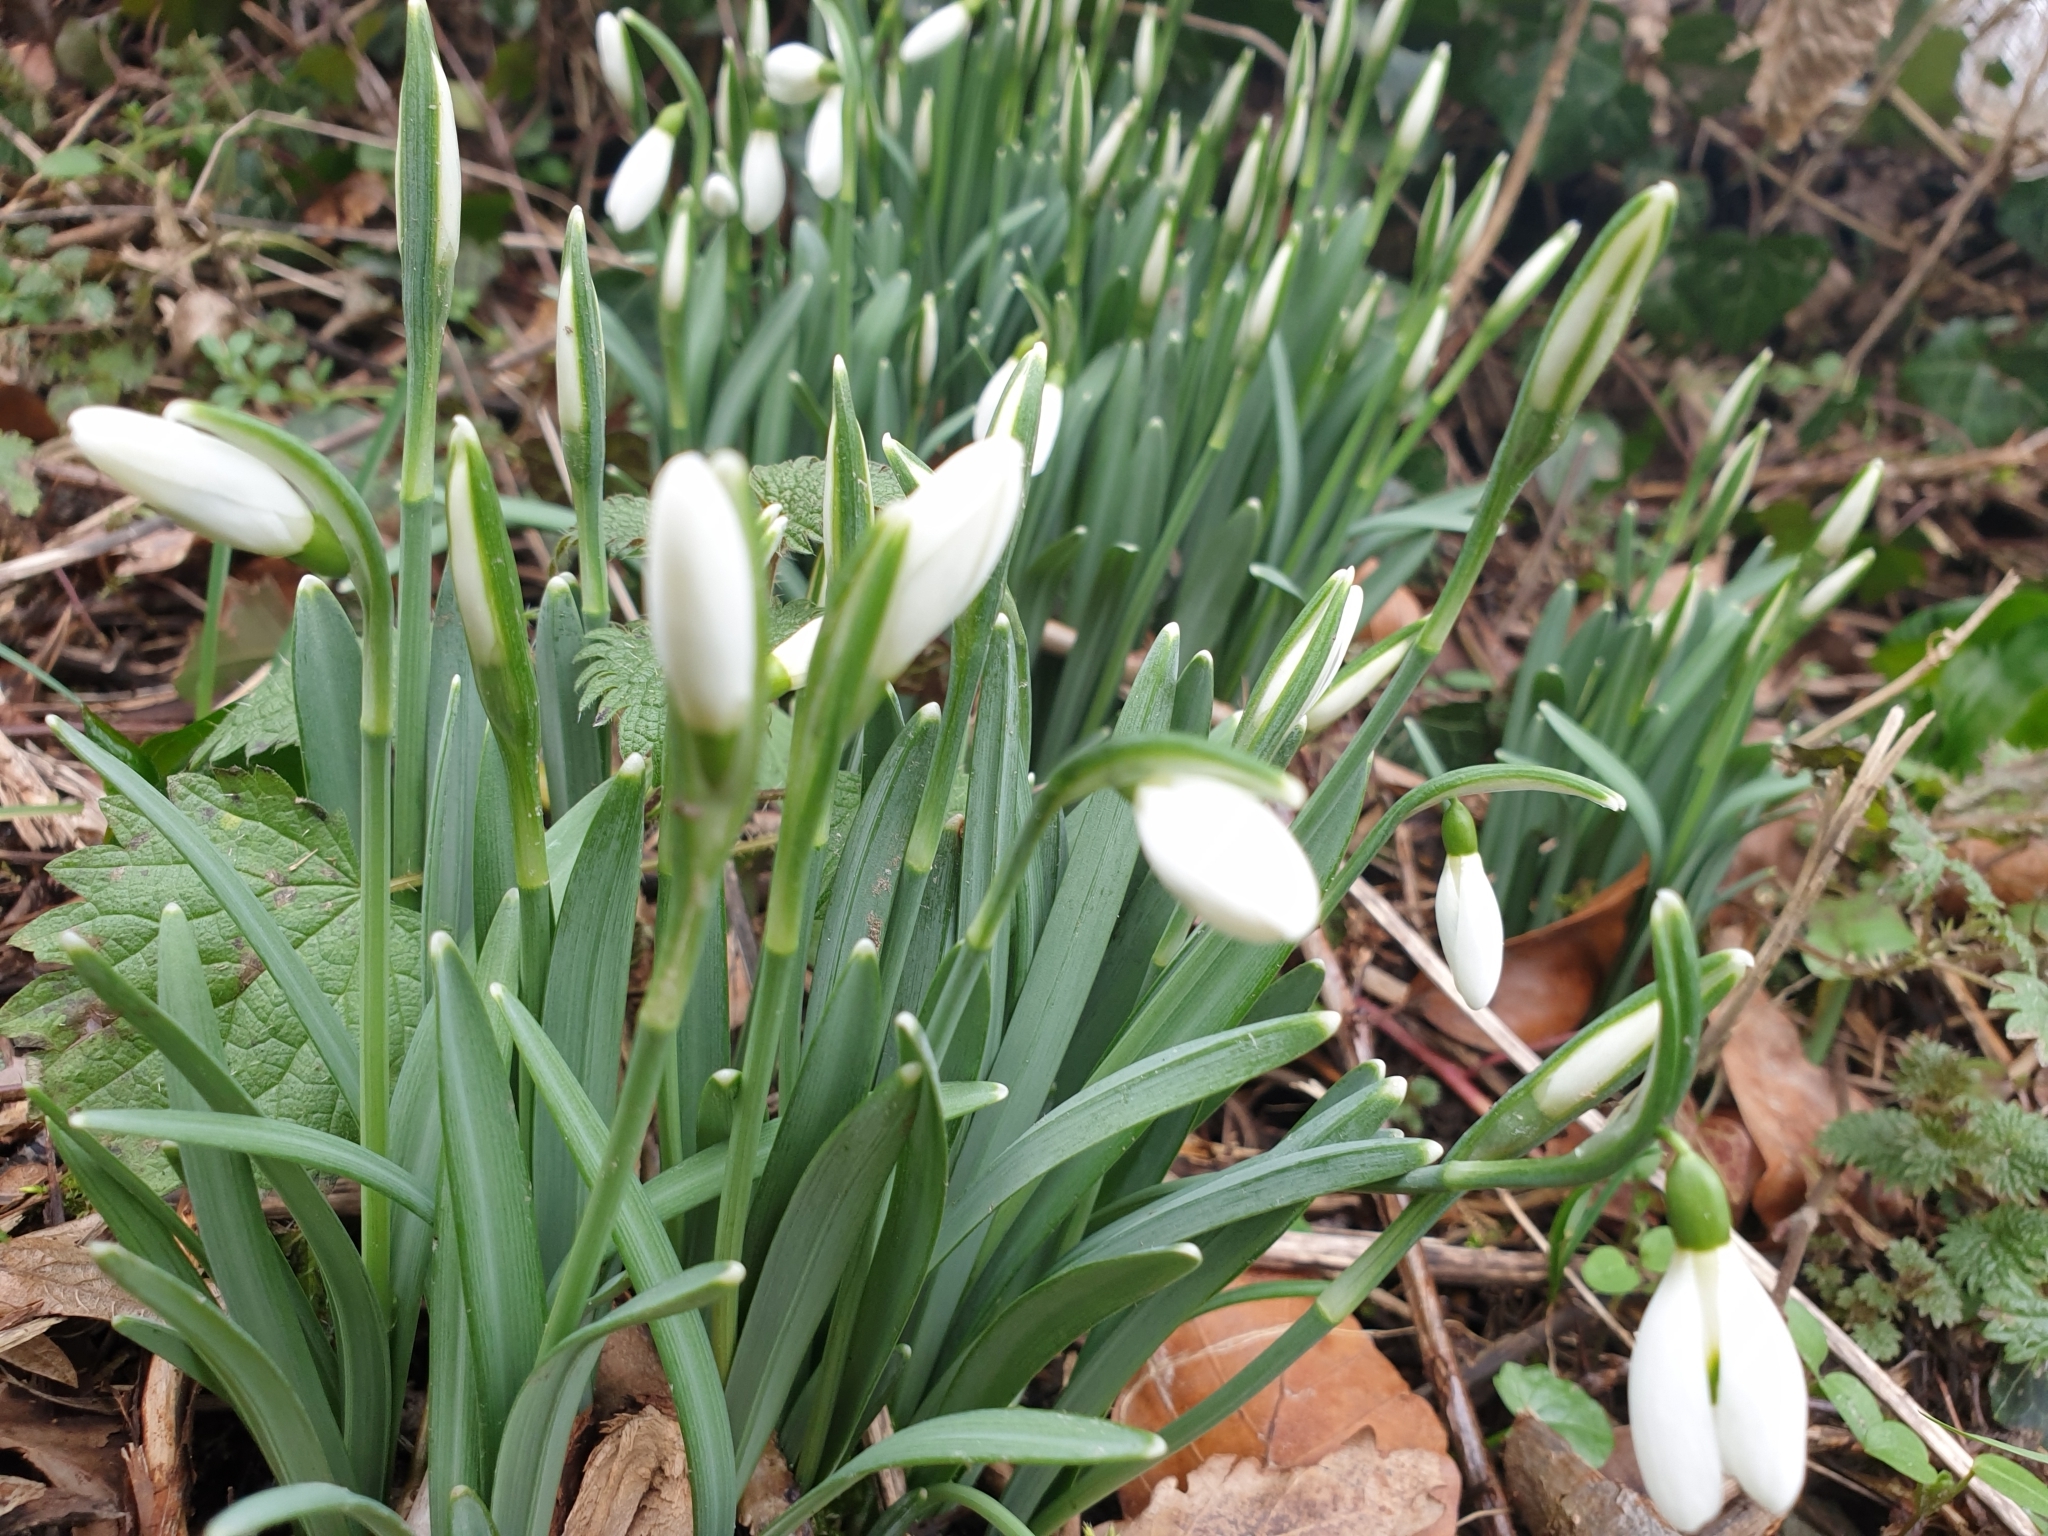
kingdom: Plantae
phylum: Tracheophyta
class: Liliopsida
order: Asparagales
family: Amaryllidaceae
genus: Galanthus
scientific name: Galanthus nivalis
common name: Snowdrop
